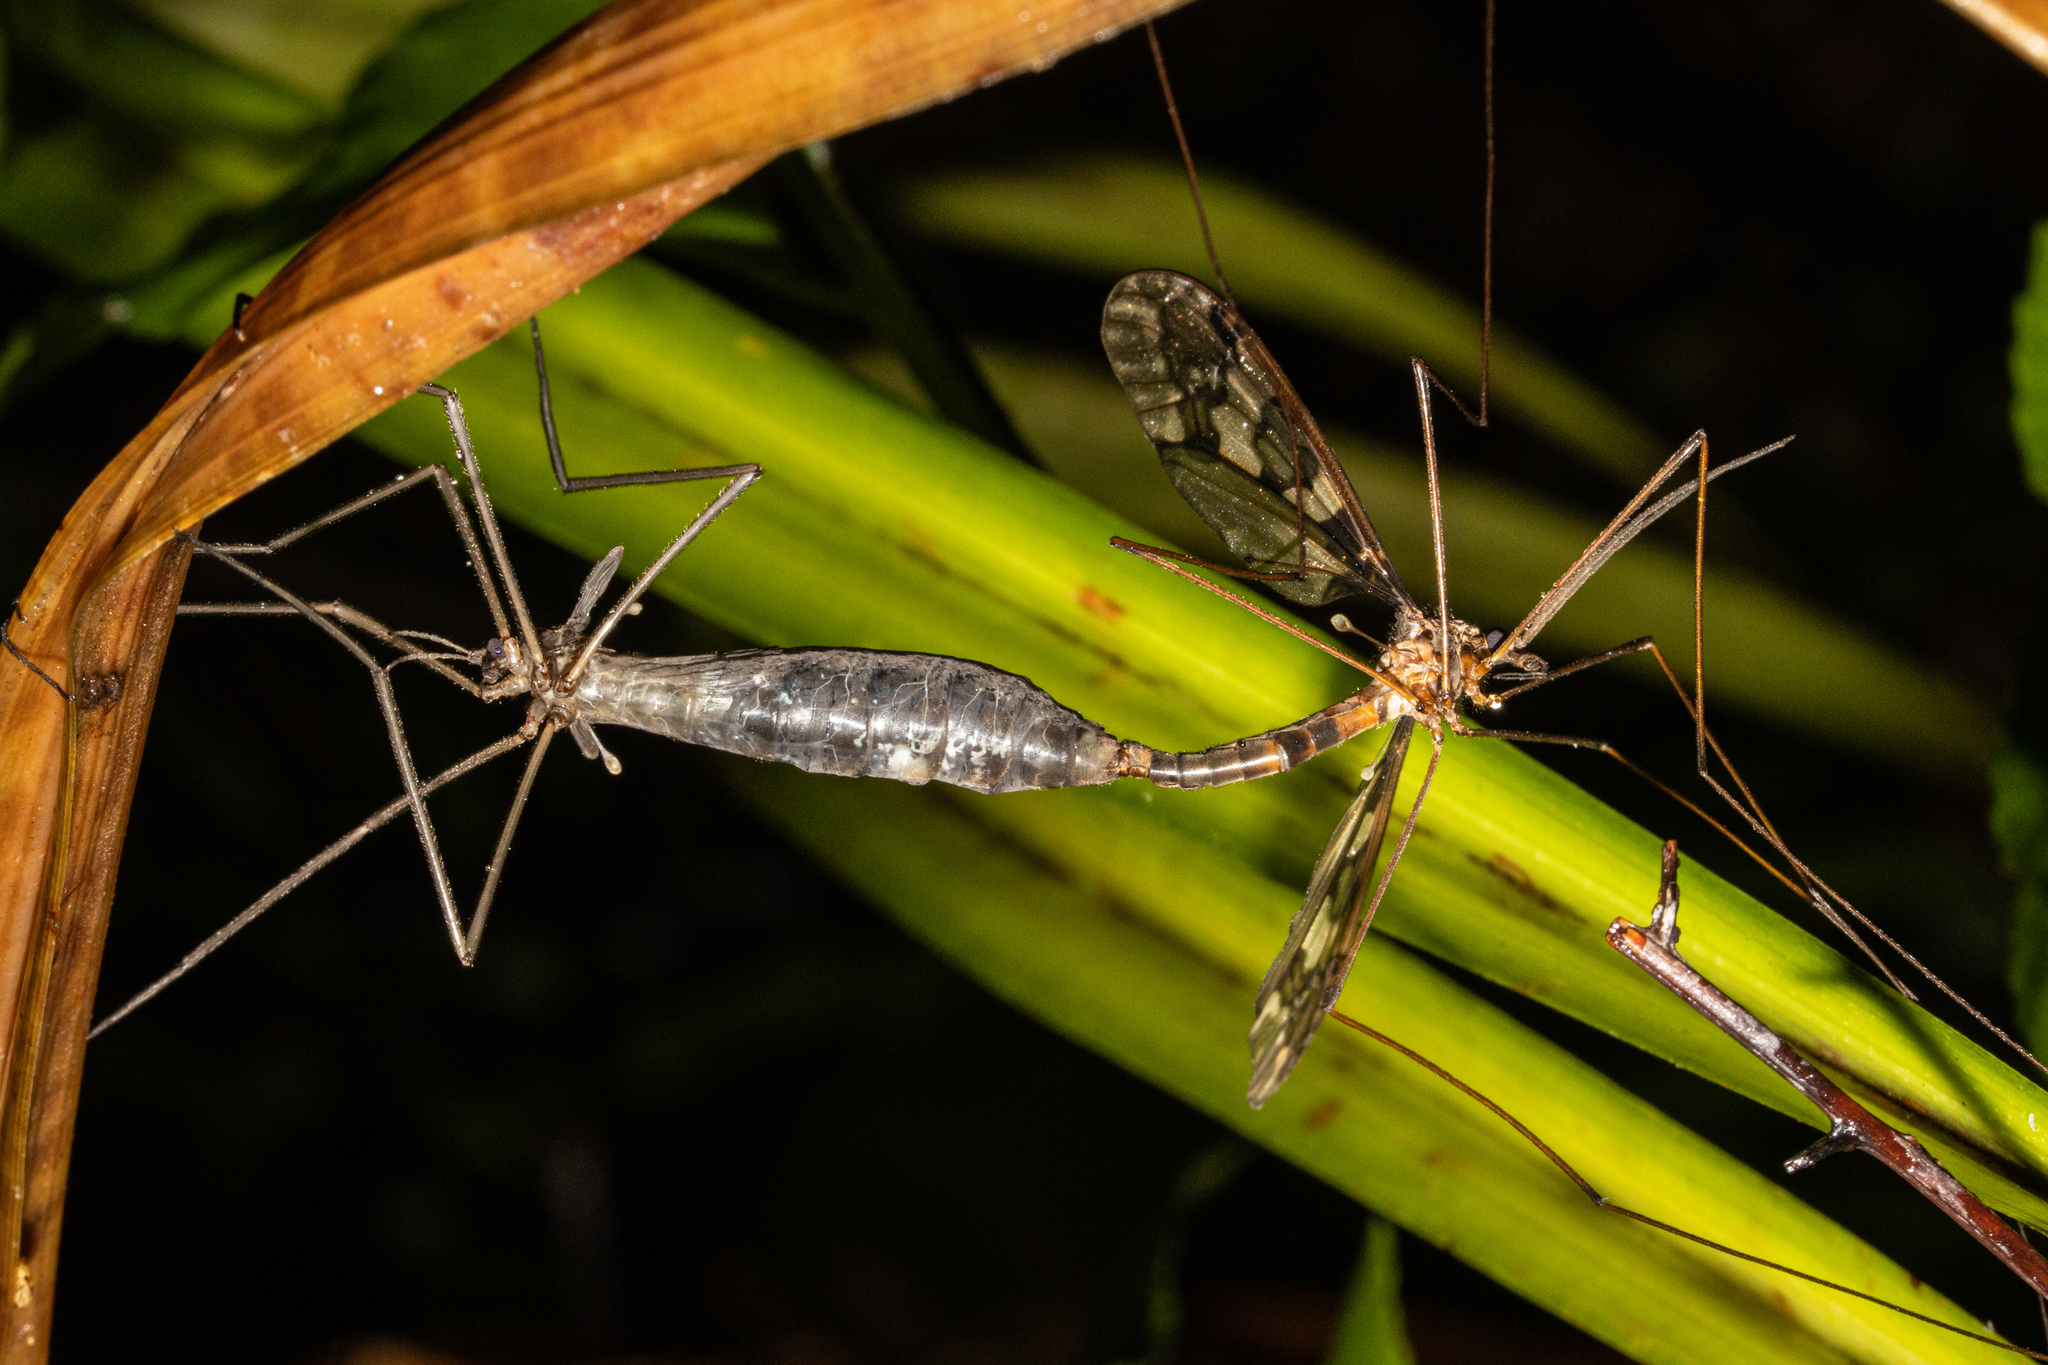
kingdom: Animalia
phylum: Arthropoda
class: Insecta
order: Diptera
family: Tipulidae
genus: Leptotarsus
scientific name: Leptotarsus binotatus
